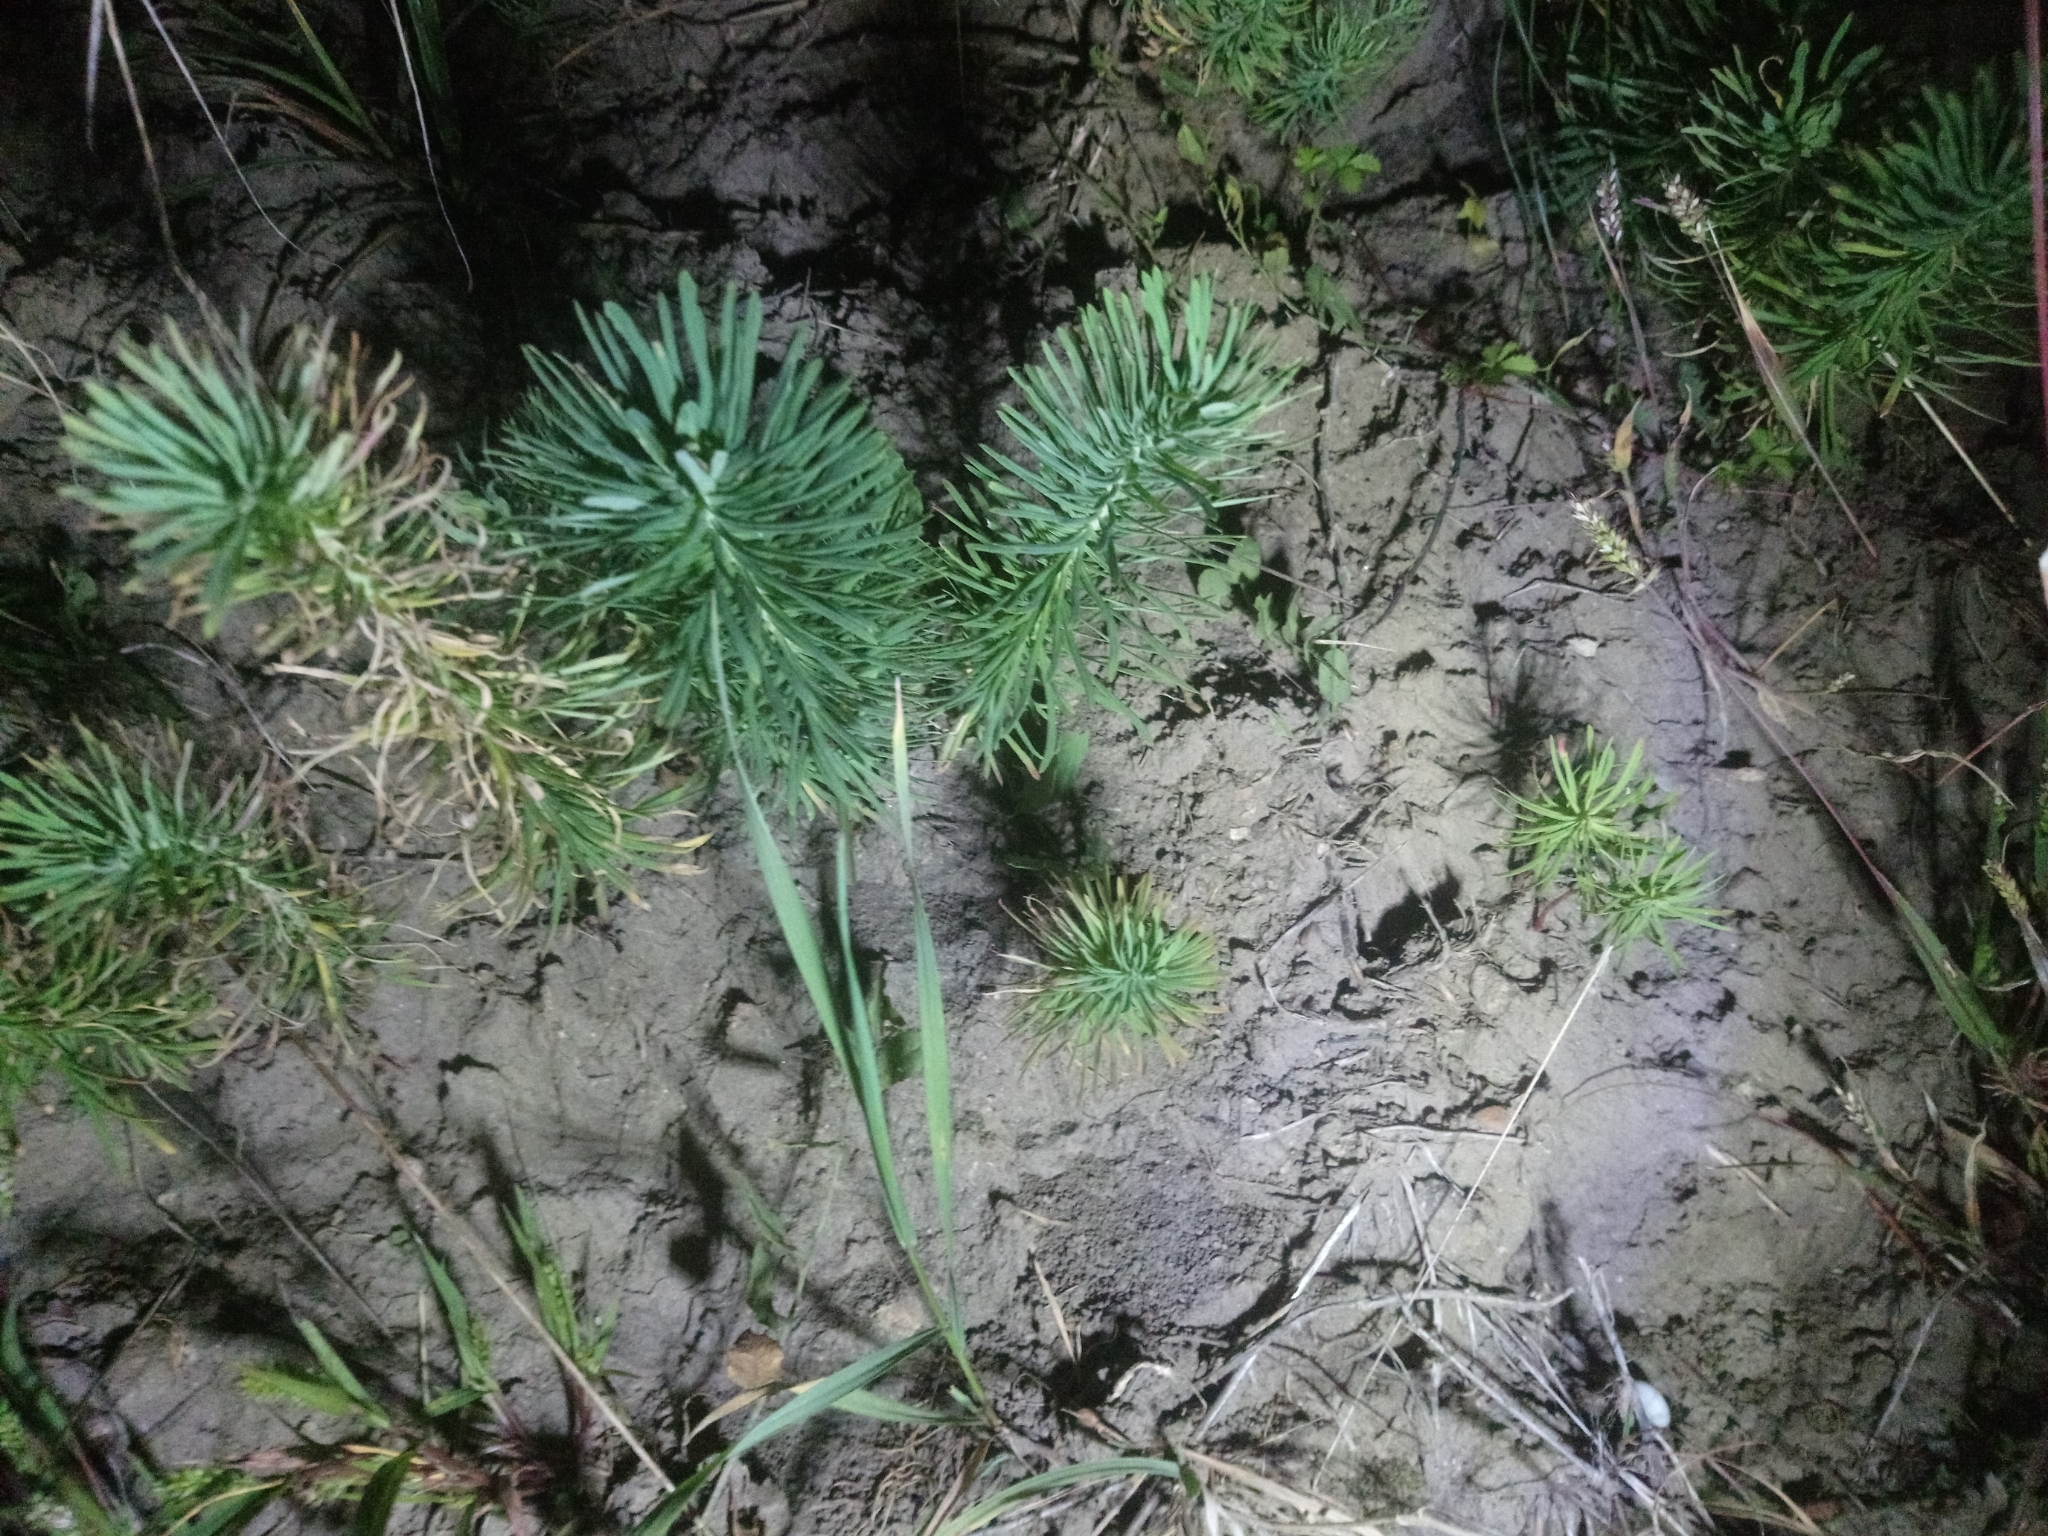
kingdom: Plantae
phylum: Tracheophyta
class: Magnoliopsida
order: Malpighiales
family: Euphorbiaceae
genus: Euphorbia
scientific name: Euphorbia cyparissias
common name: Cypress spurge
